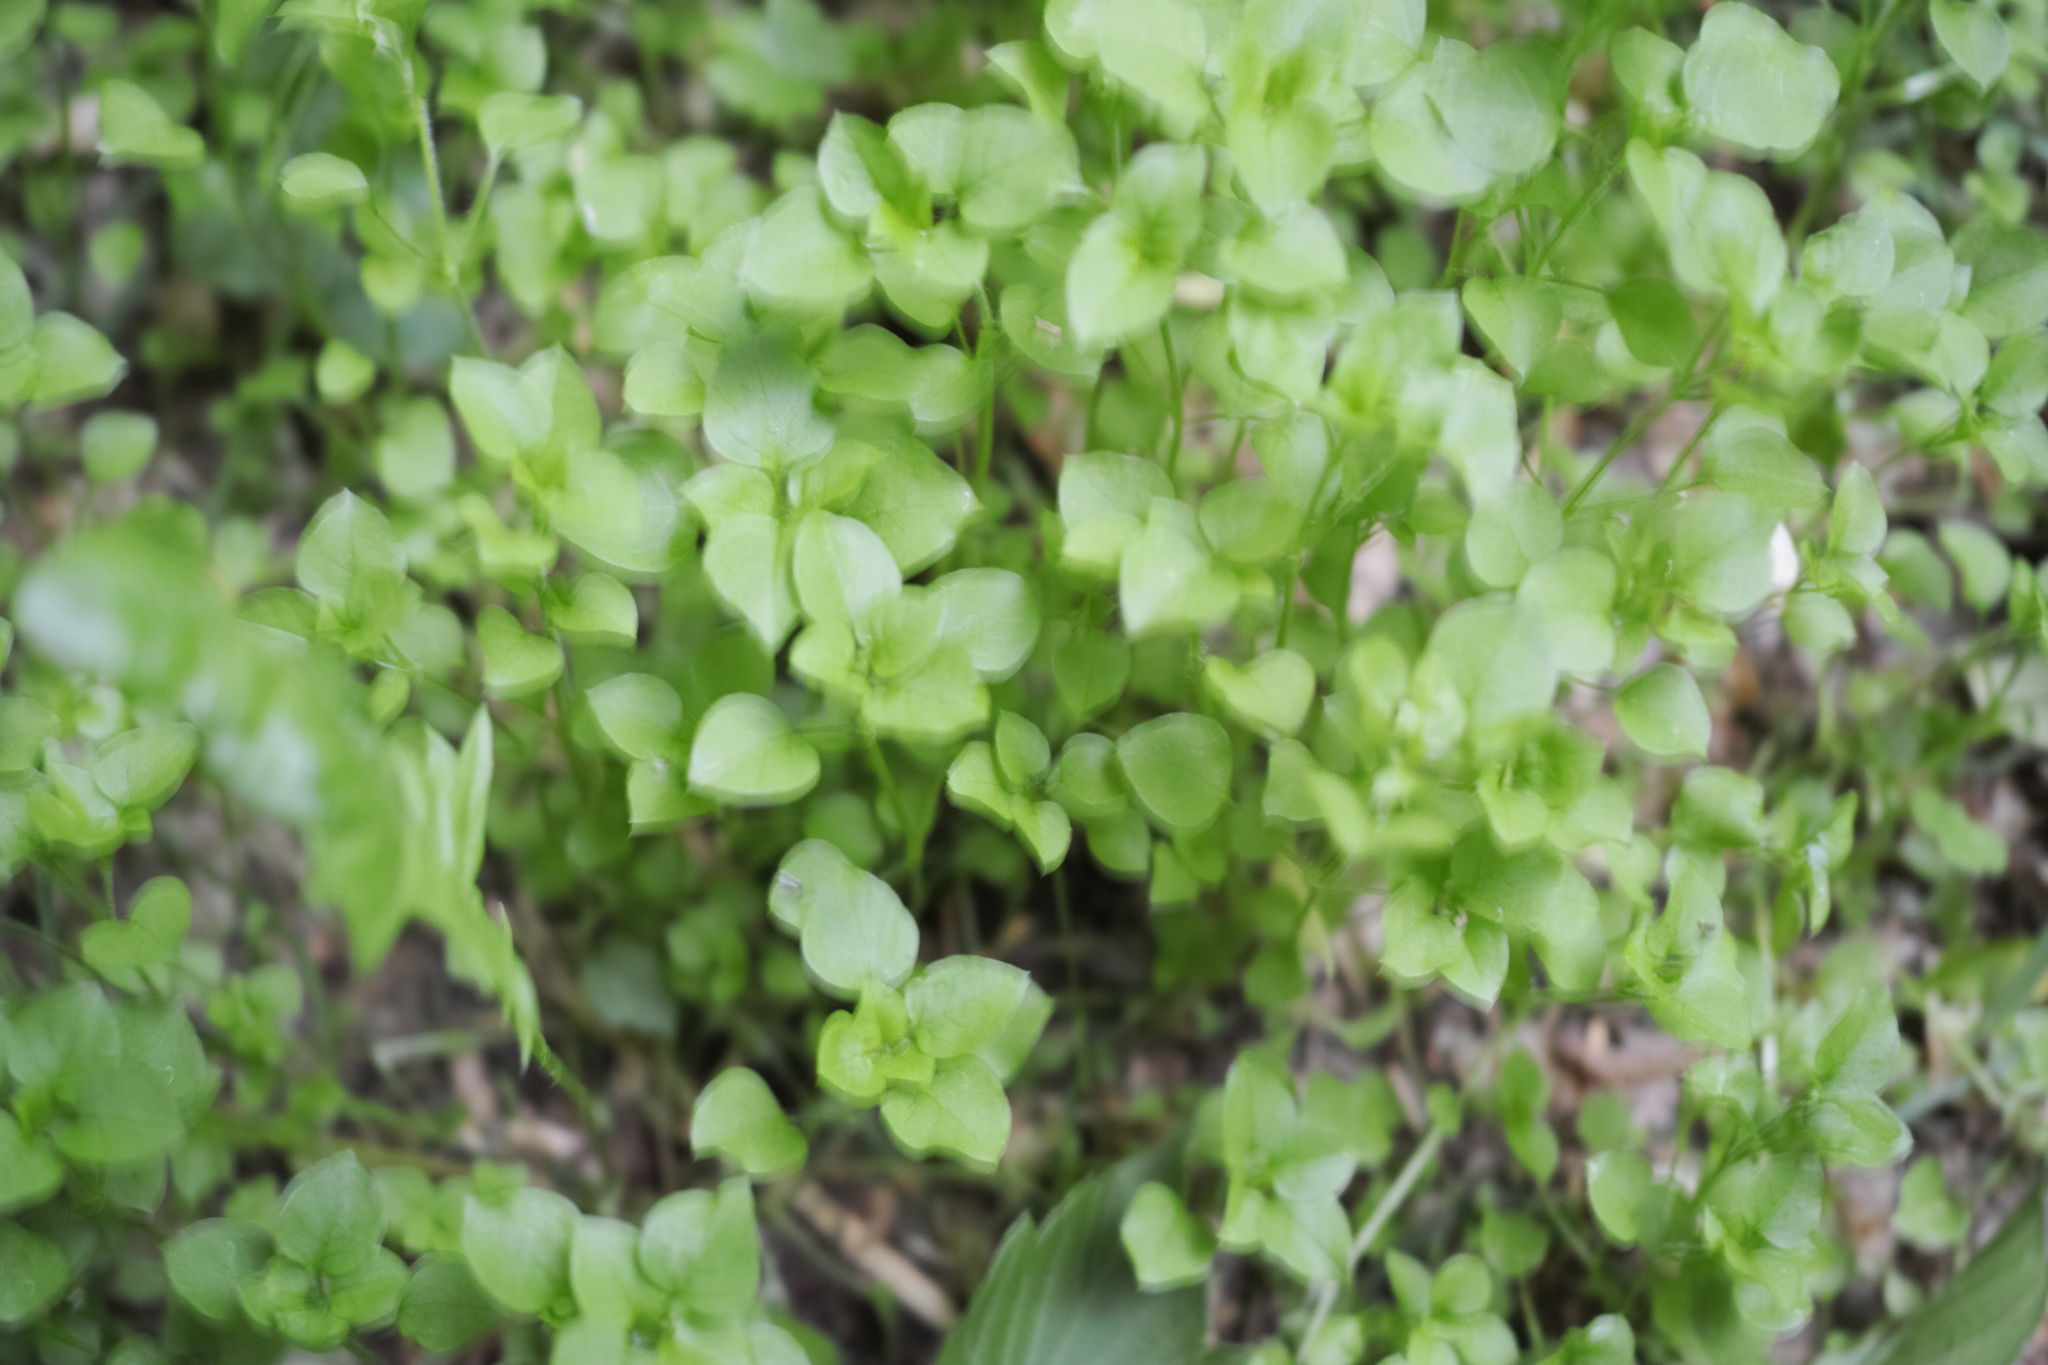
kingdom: Plantae
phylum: Tracheophyta
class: Magnoliopsida
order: Caryophyllales
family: Caryophyllaceae
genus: Stellaria
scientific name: Stellaria media
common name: Common chickweed
